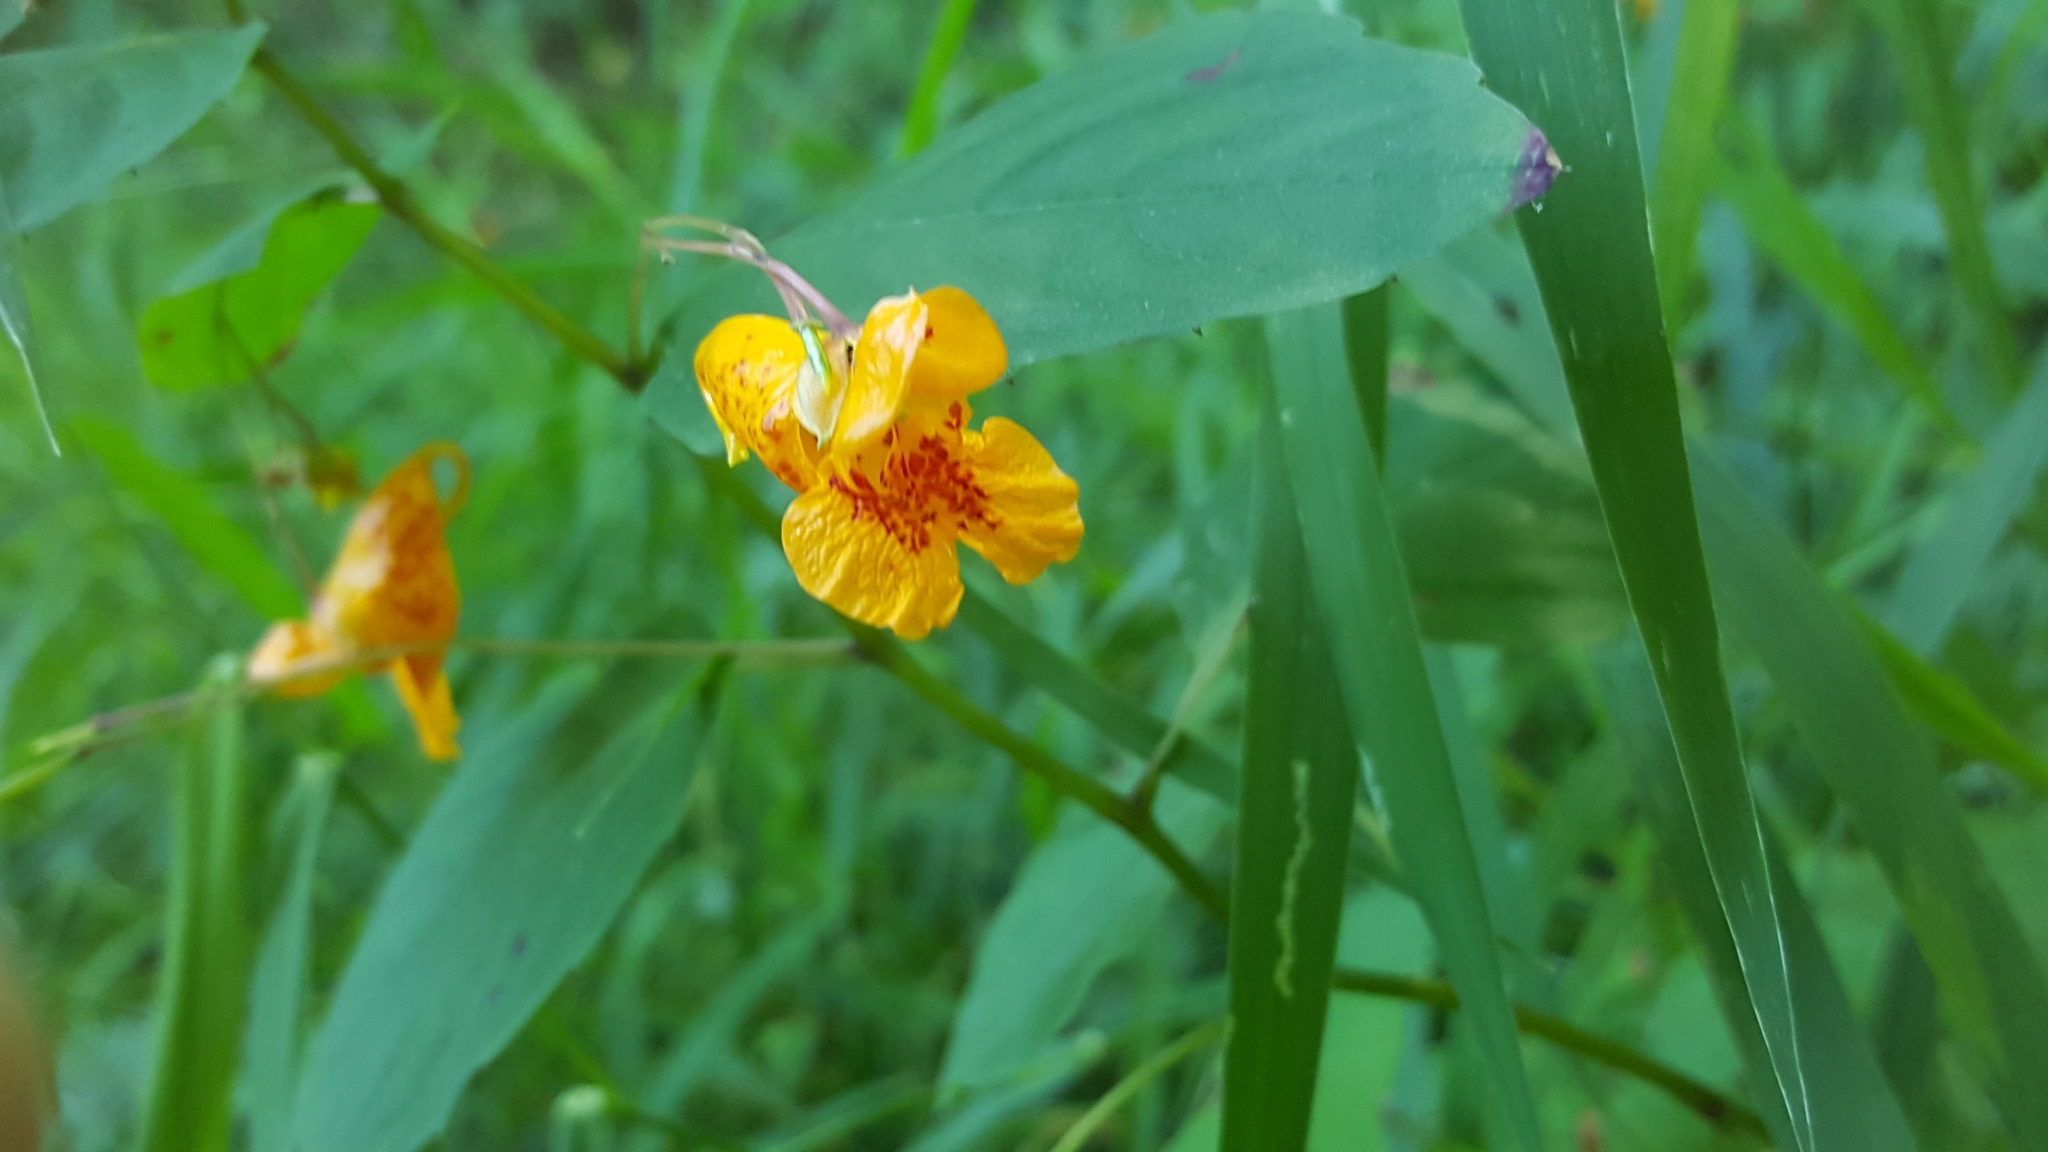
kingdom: Plantae
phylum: Tracheophyta
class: Magnoliopsida
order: Ericales
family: Balsaminaceae
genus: Impatiens
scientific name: Impatiens capensis
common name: Orange balsam
